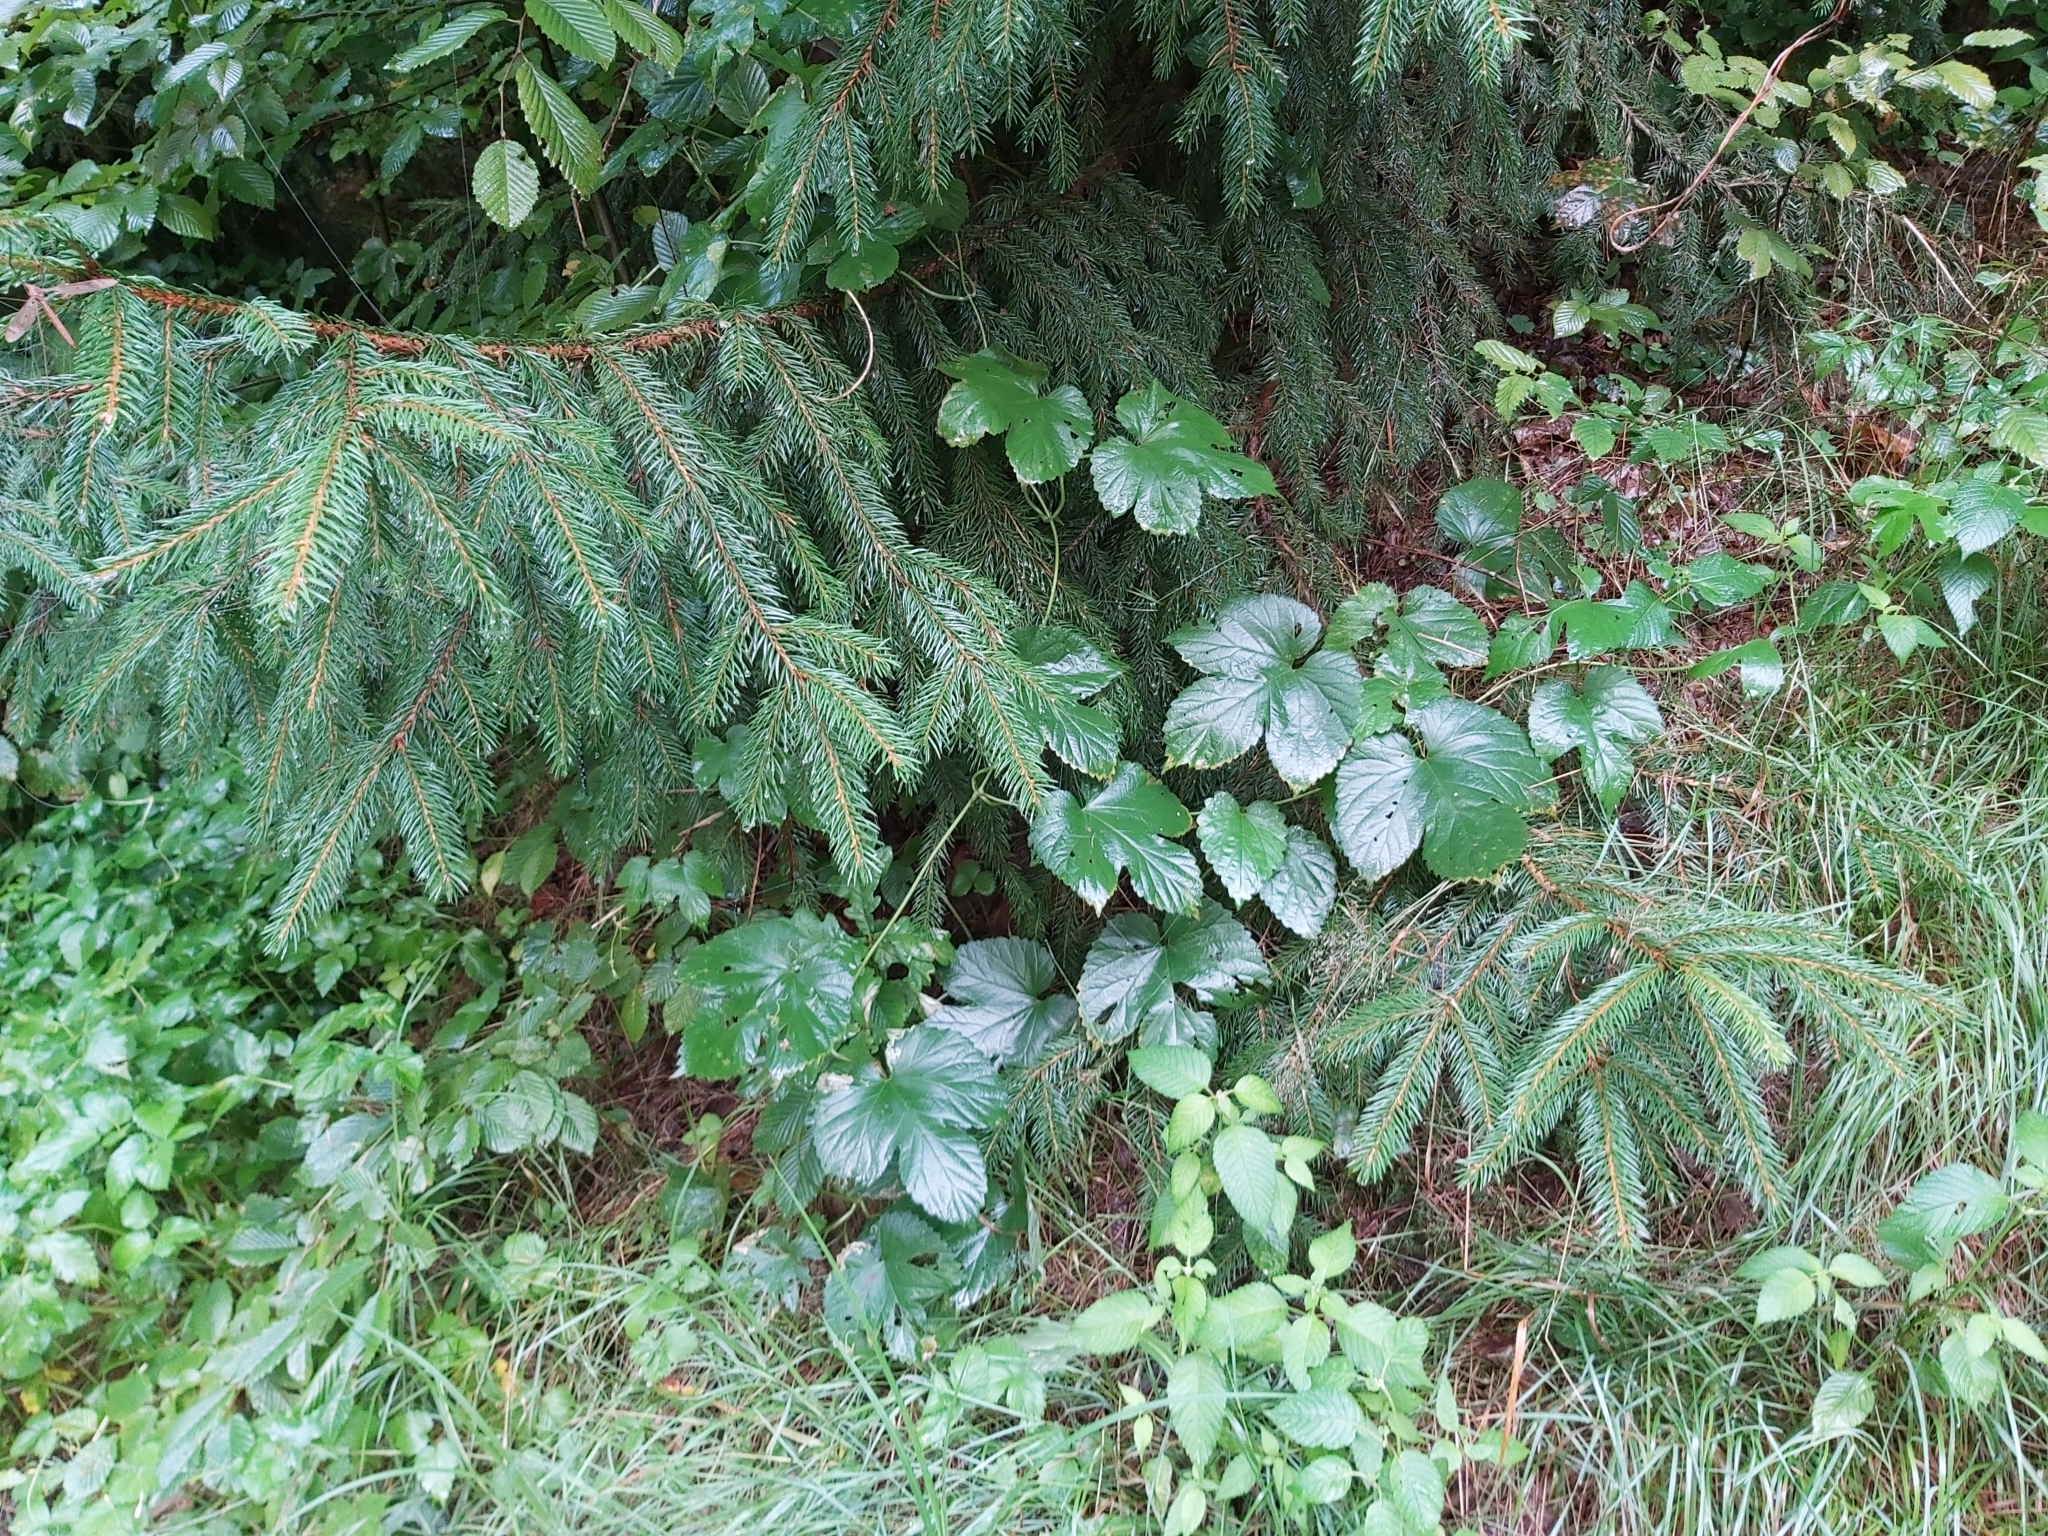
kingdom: Plantae
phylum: Tracheophyta
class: Magnoliopsida
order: Rosales
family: Cannabaceae
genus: Humulus
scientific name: Humulus lupulus
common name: Hop
